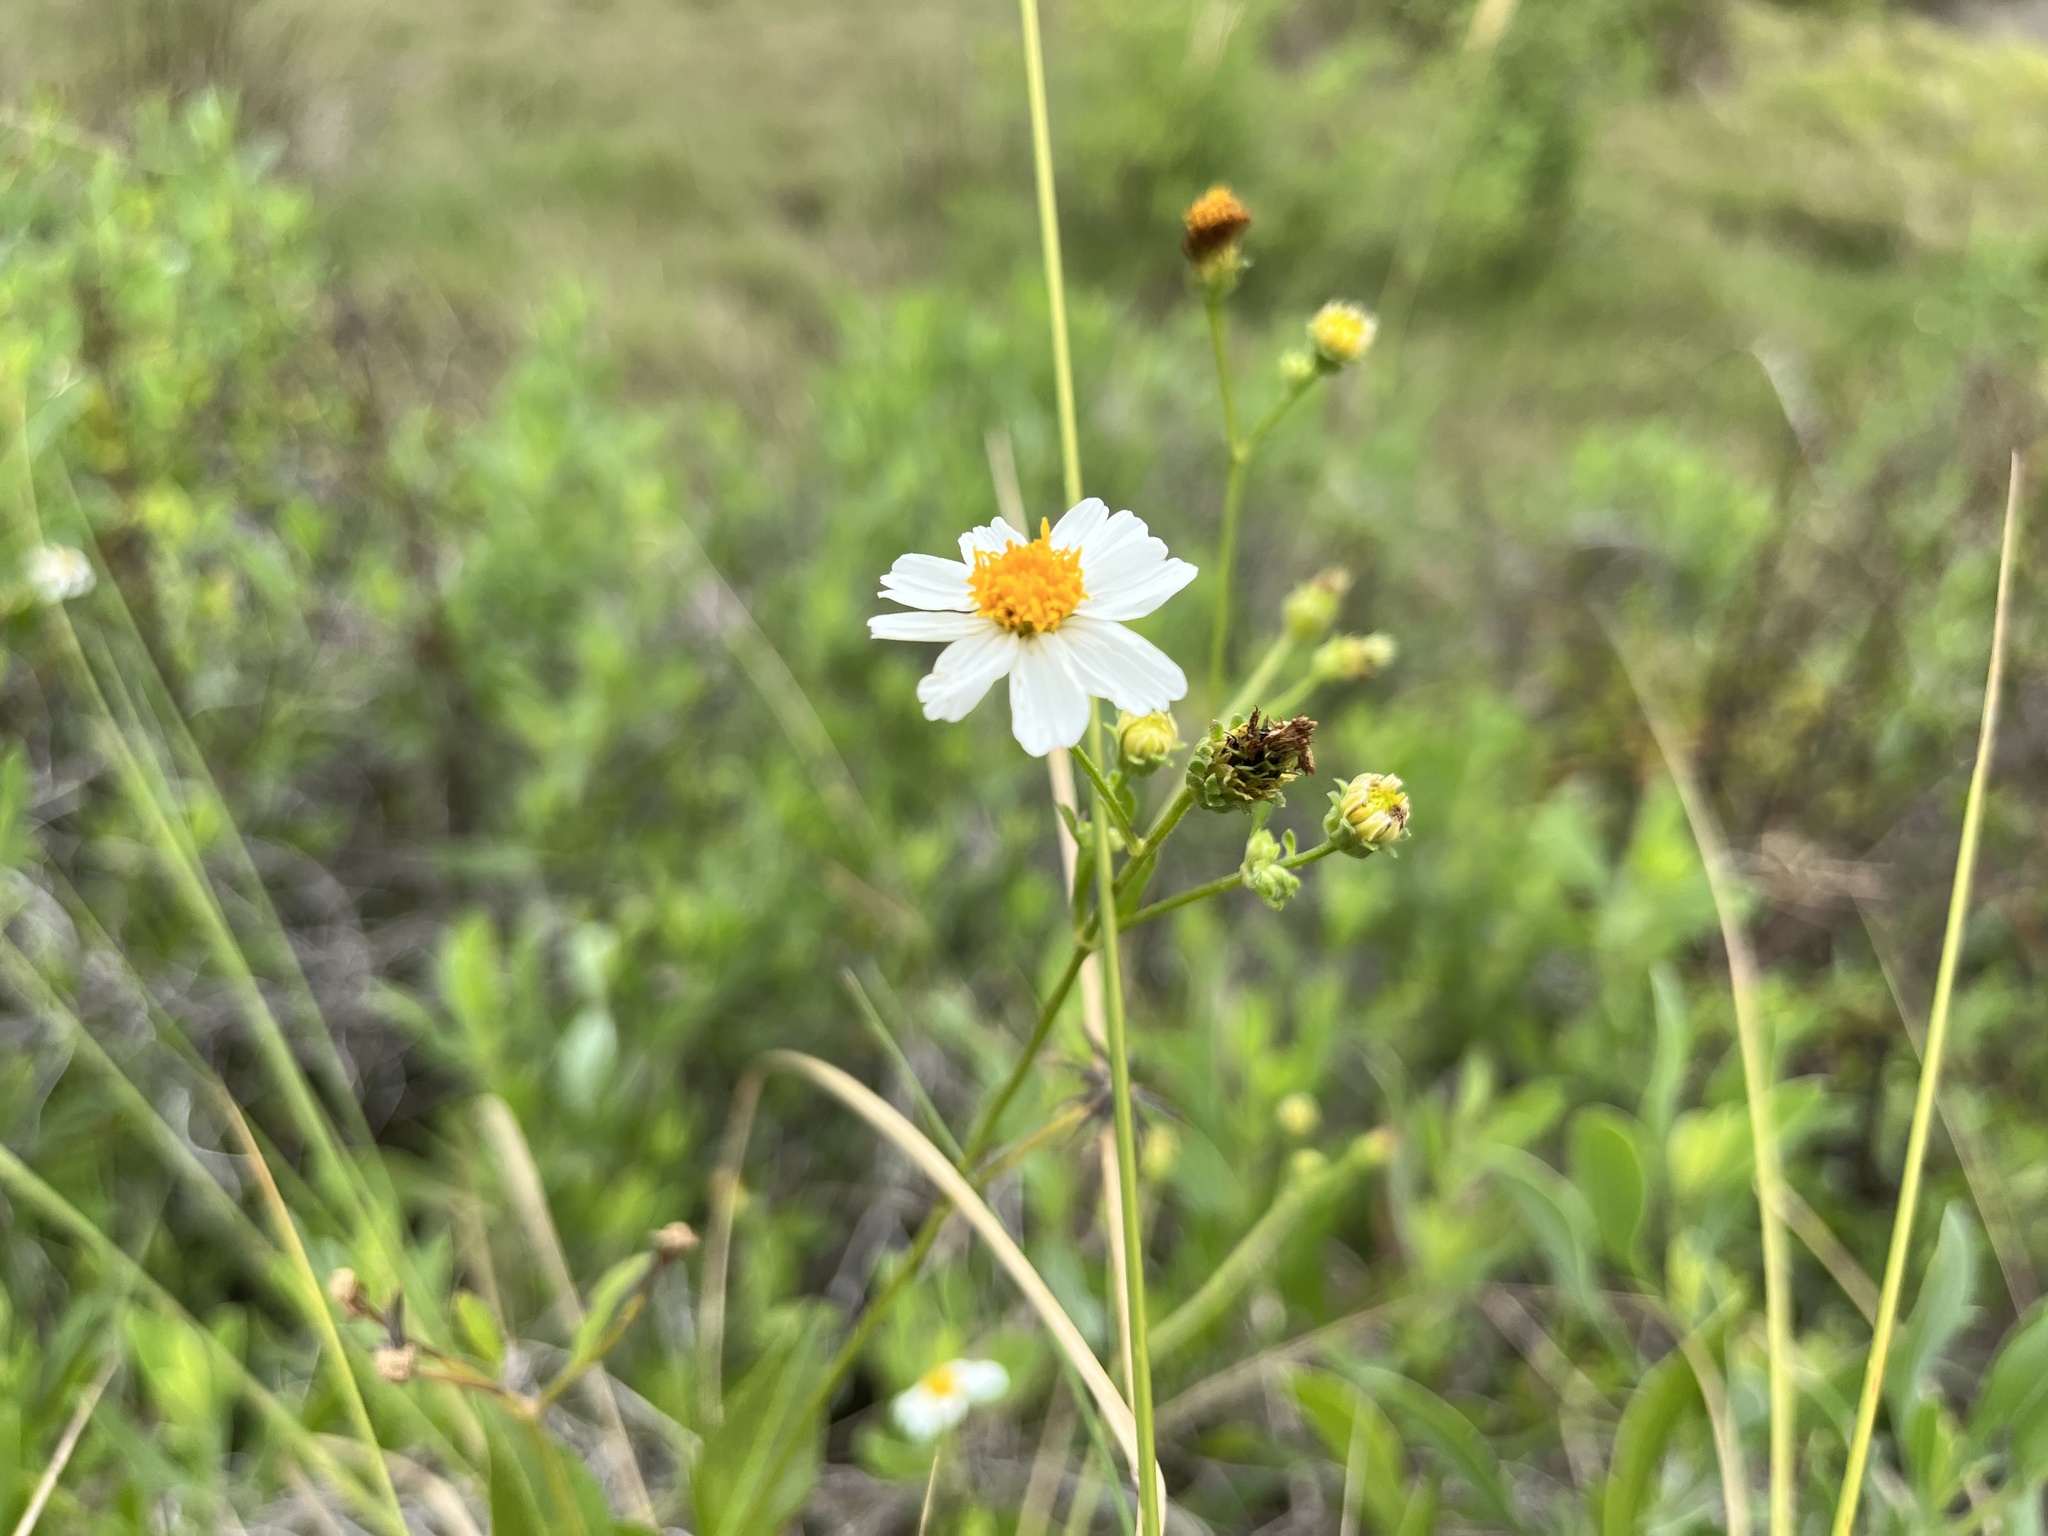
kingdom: Plantae
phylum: Tracheophyta
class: Magnoliopsida
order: Asterales
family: Asteraceae
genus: Bidens
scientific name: Bidens alba
